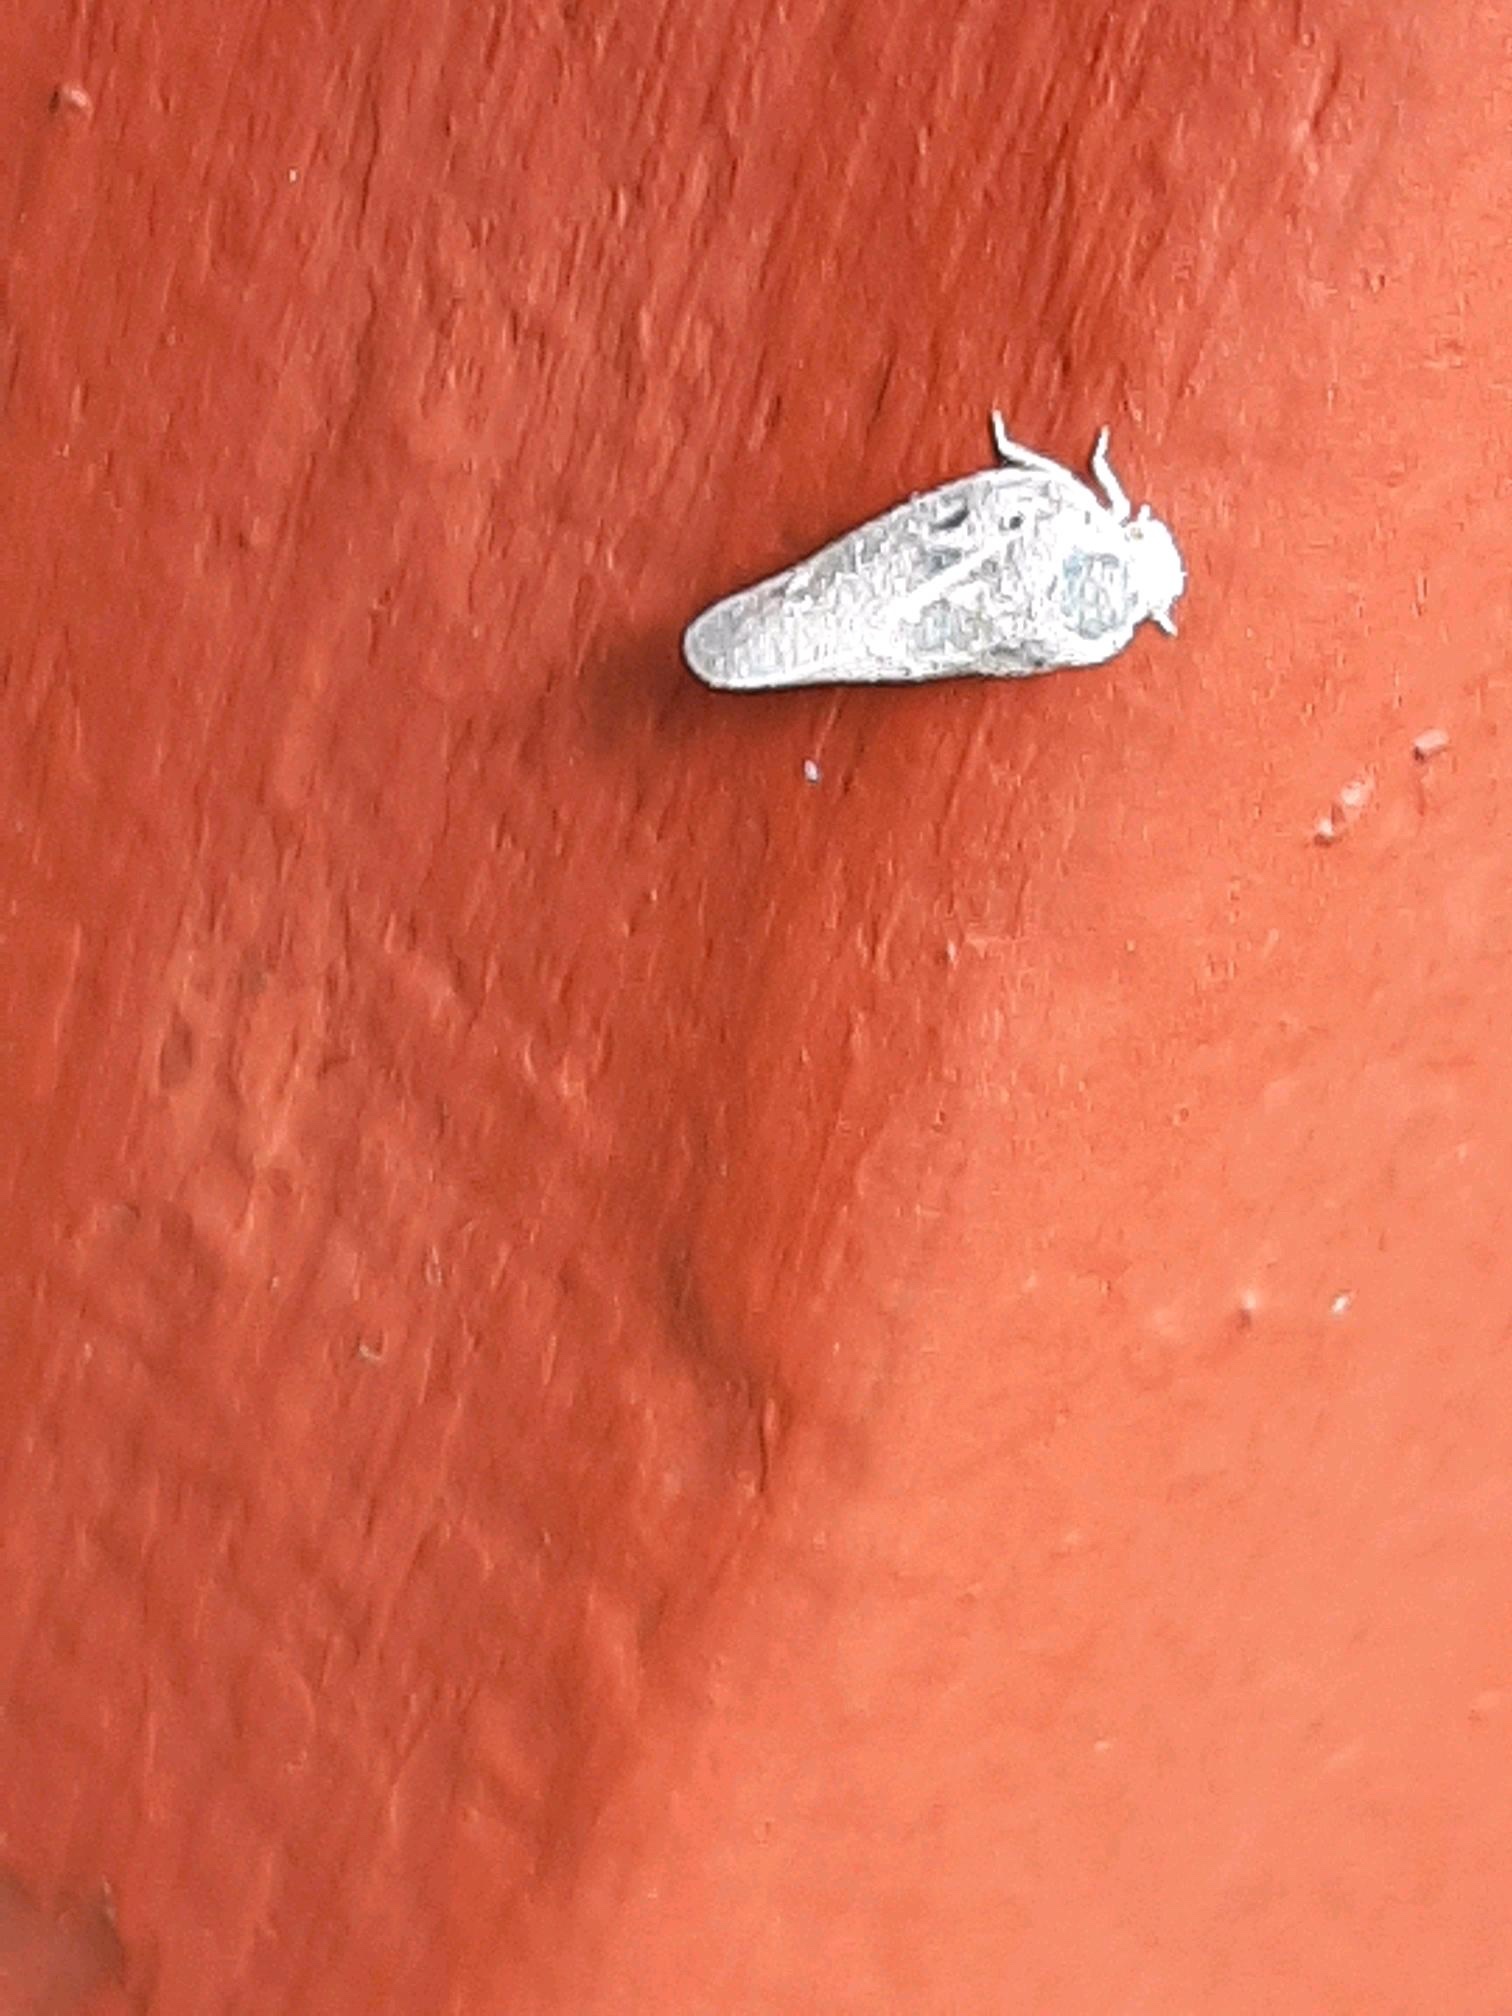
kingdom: Animalia
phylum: Arthropoda
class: Insecta
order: Hemiptera
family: Flatidae
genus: Metcalfa
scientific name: Metcalfa pruinosa
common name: Citrus flatid planthopper
